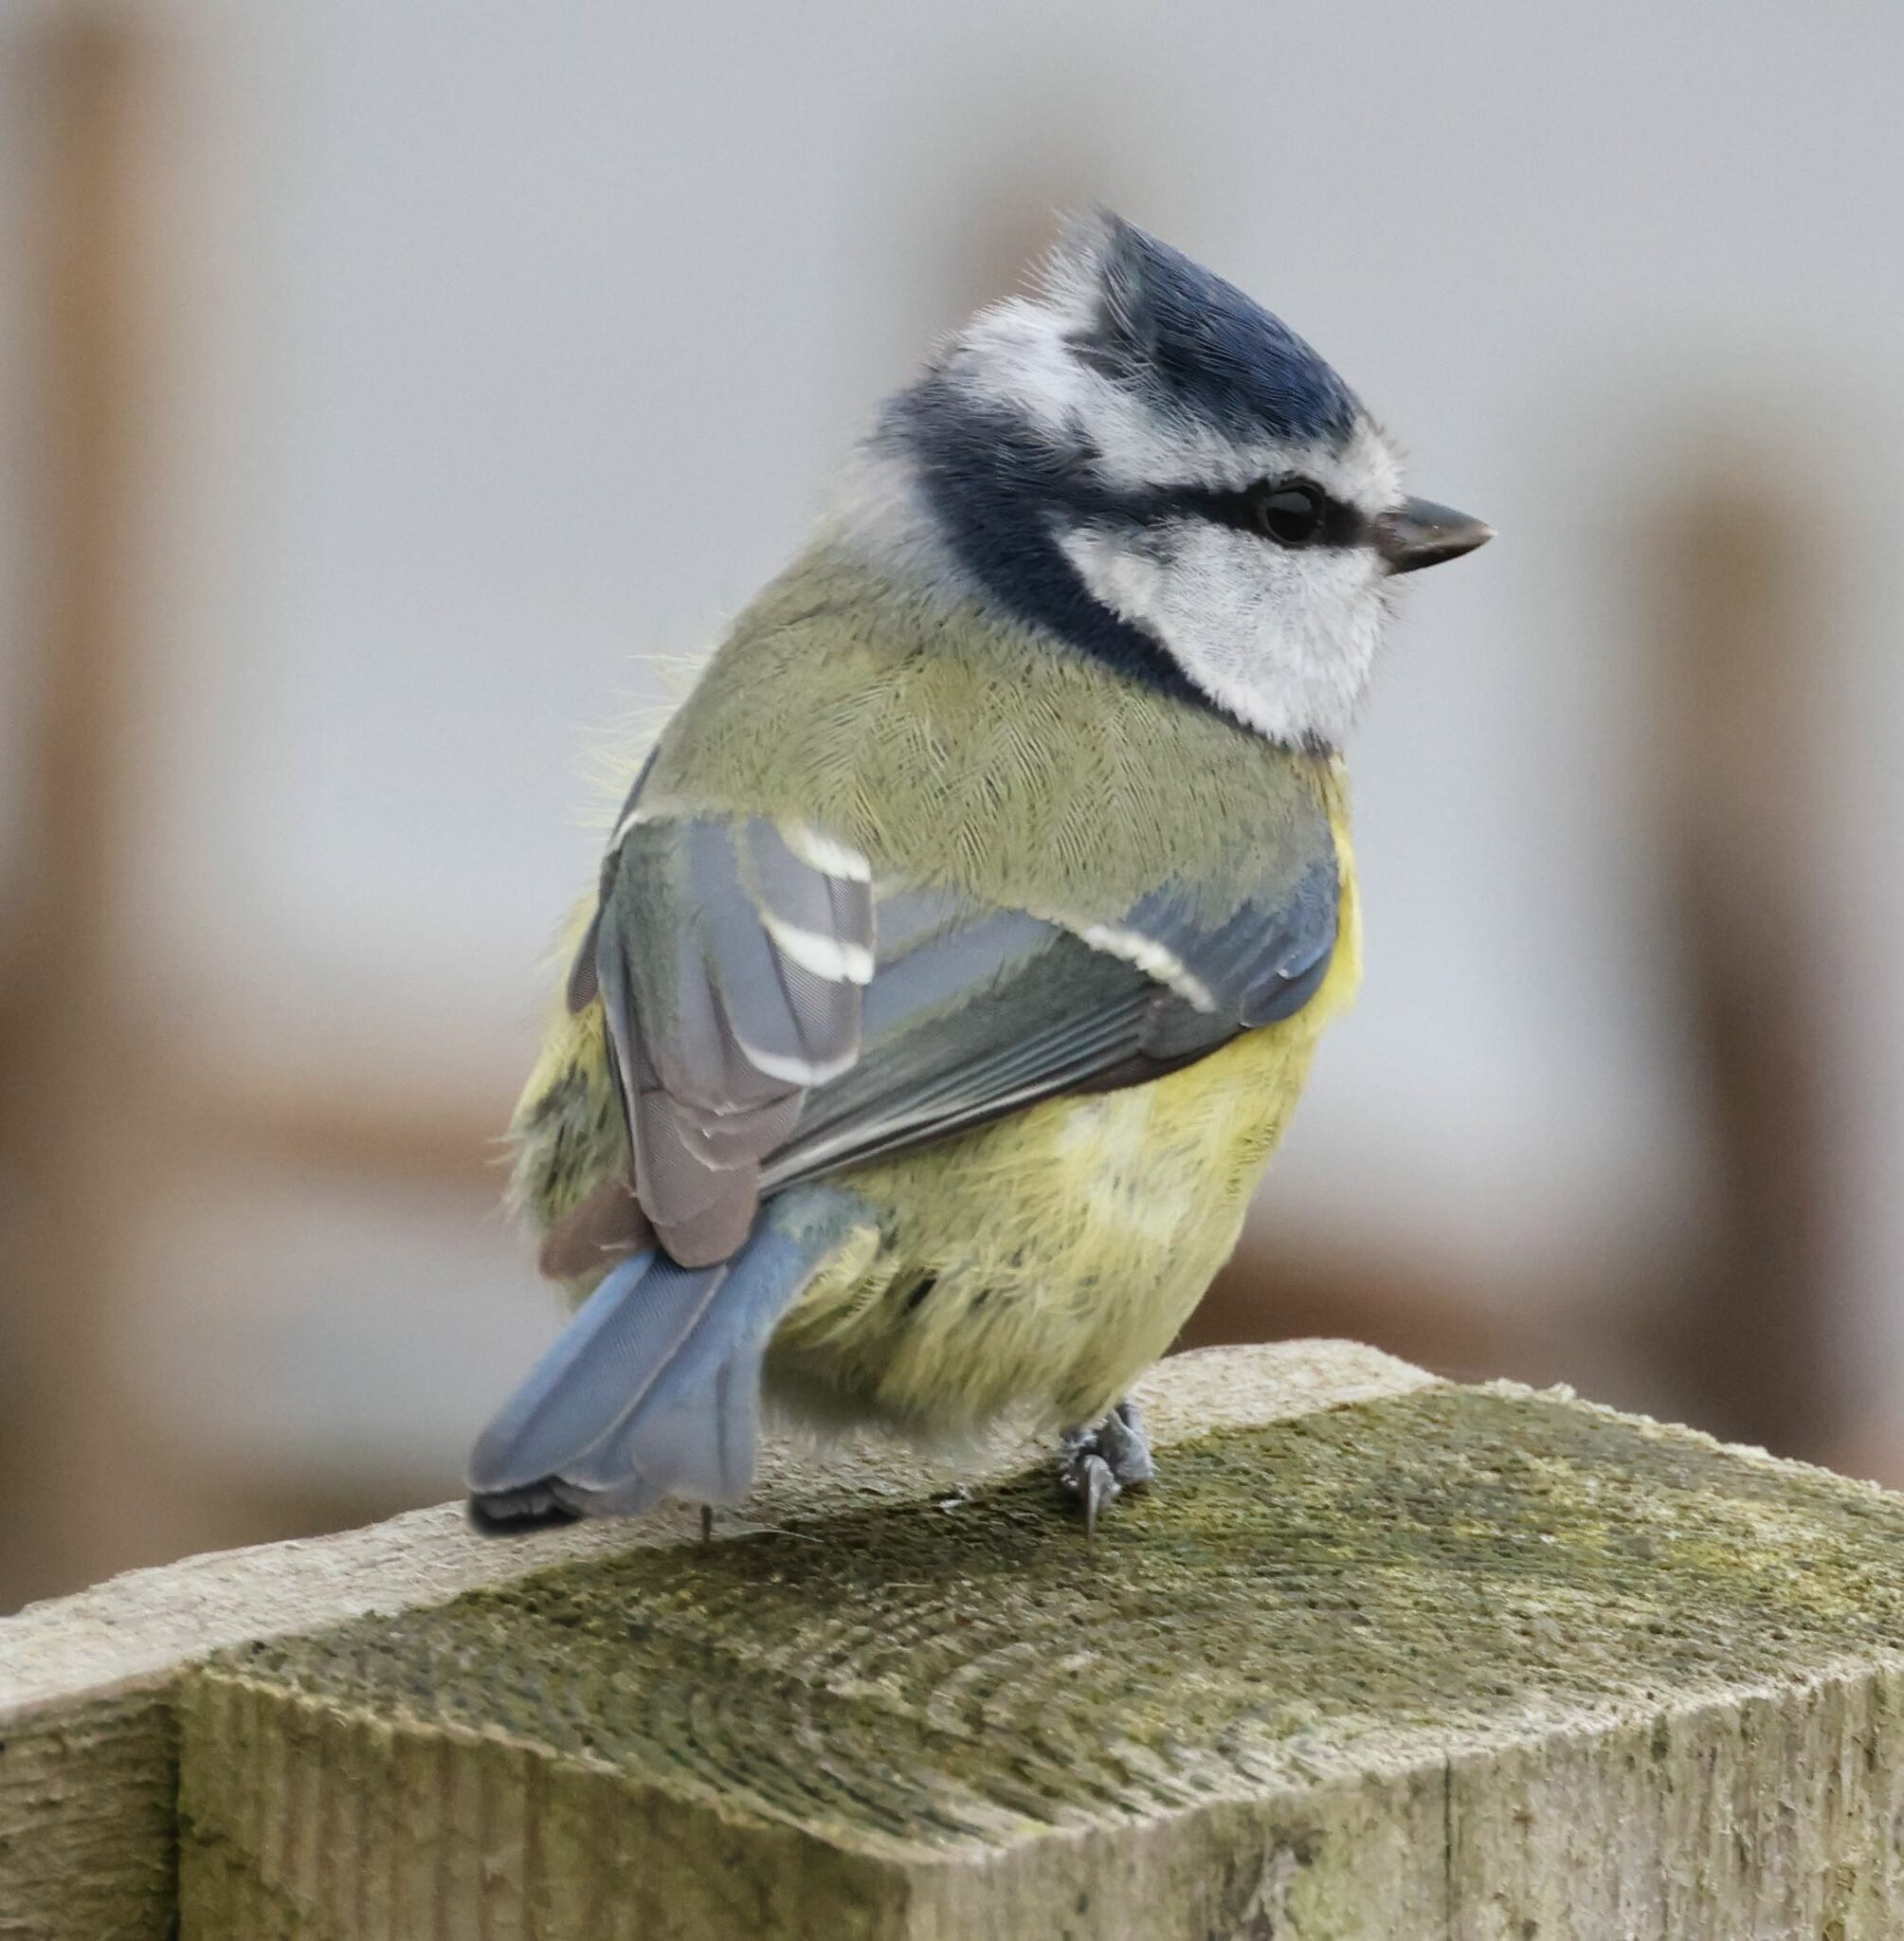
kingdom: Animalia
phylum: Chordata
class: Aves
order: Passeriformes
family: Paridae
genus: Cyanistes
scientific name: Cyanistes caeruleus
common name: Eurasian blue tit
